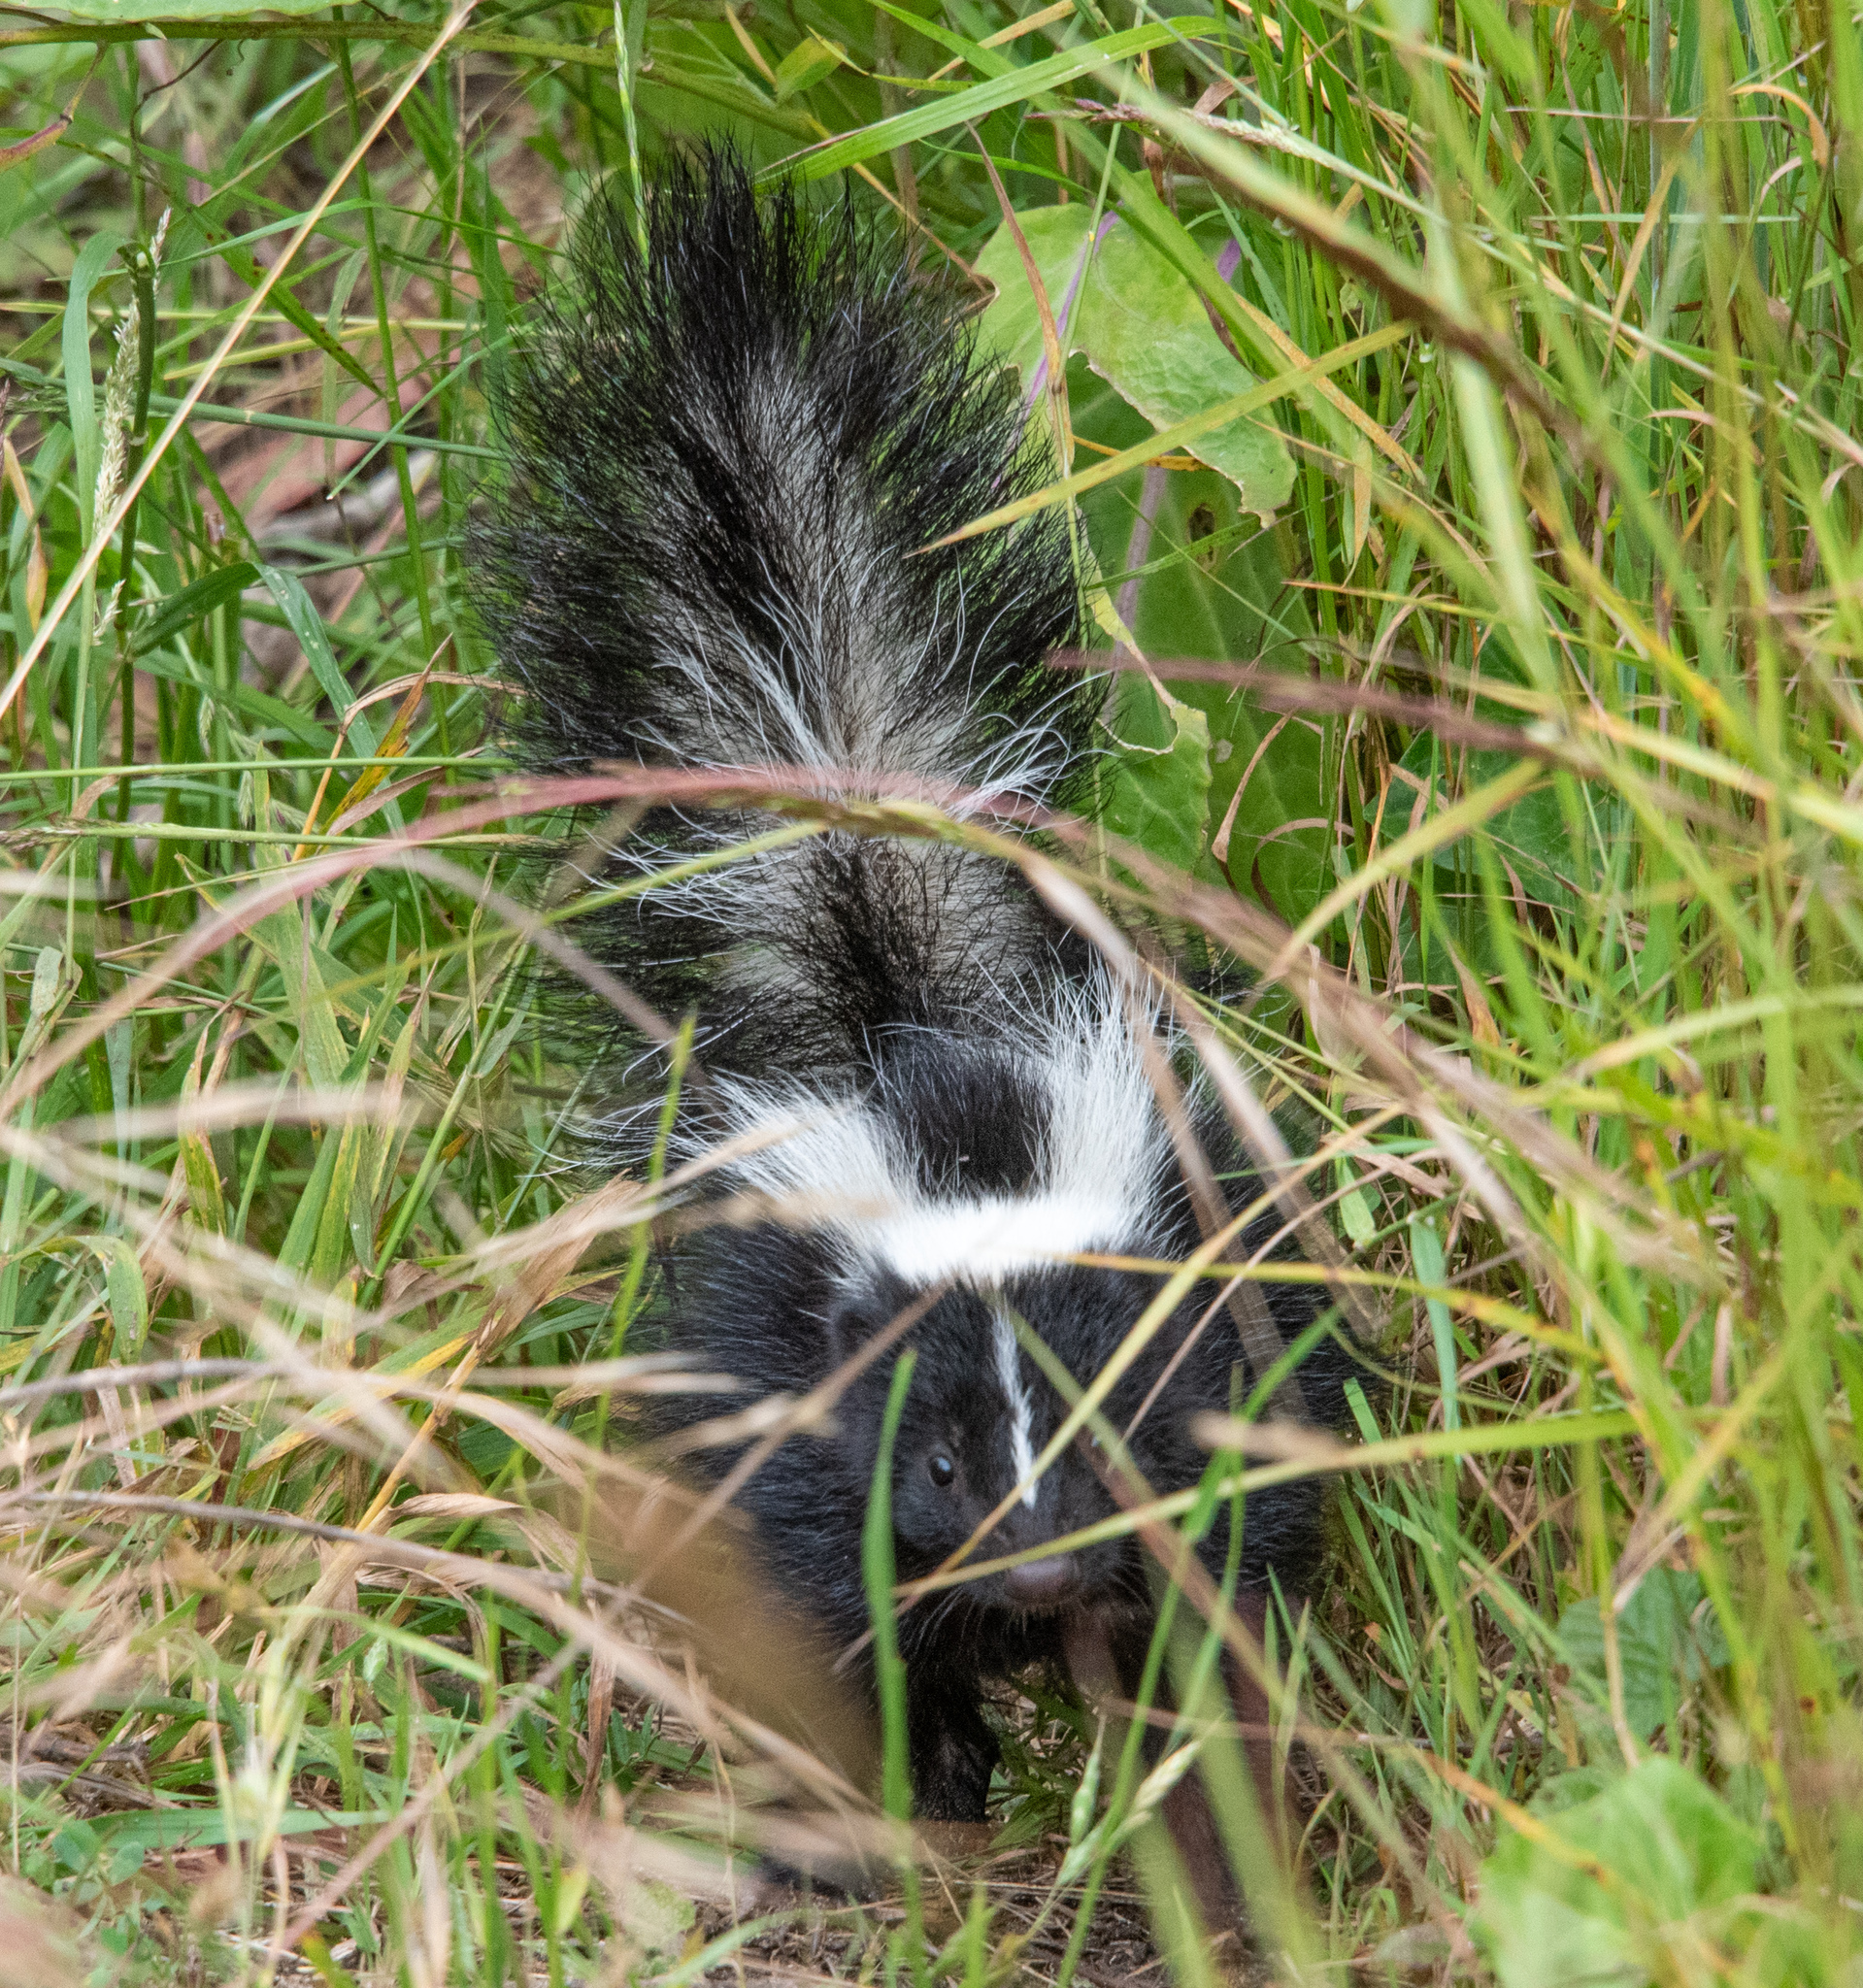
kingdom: Animalia
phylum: Chordata
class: Mammalia
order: Carnivora
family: Mephitidae
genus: Mephitis
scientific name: Mephitis mephitis
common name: Striped skunk
